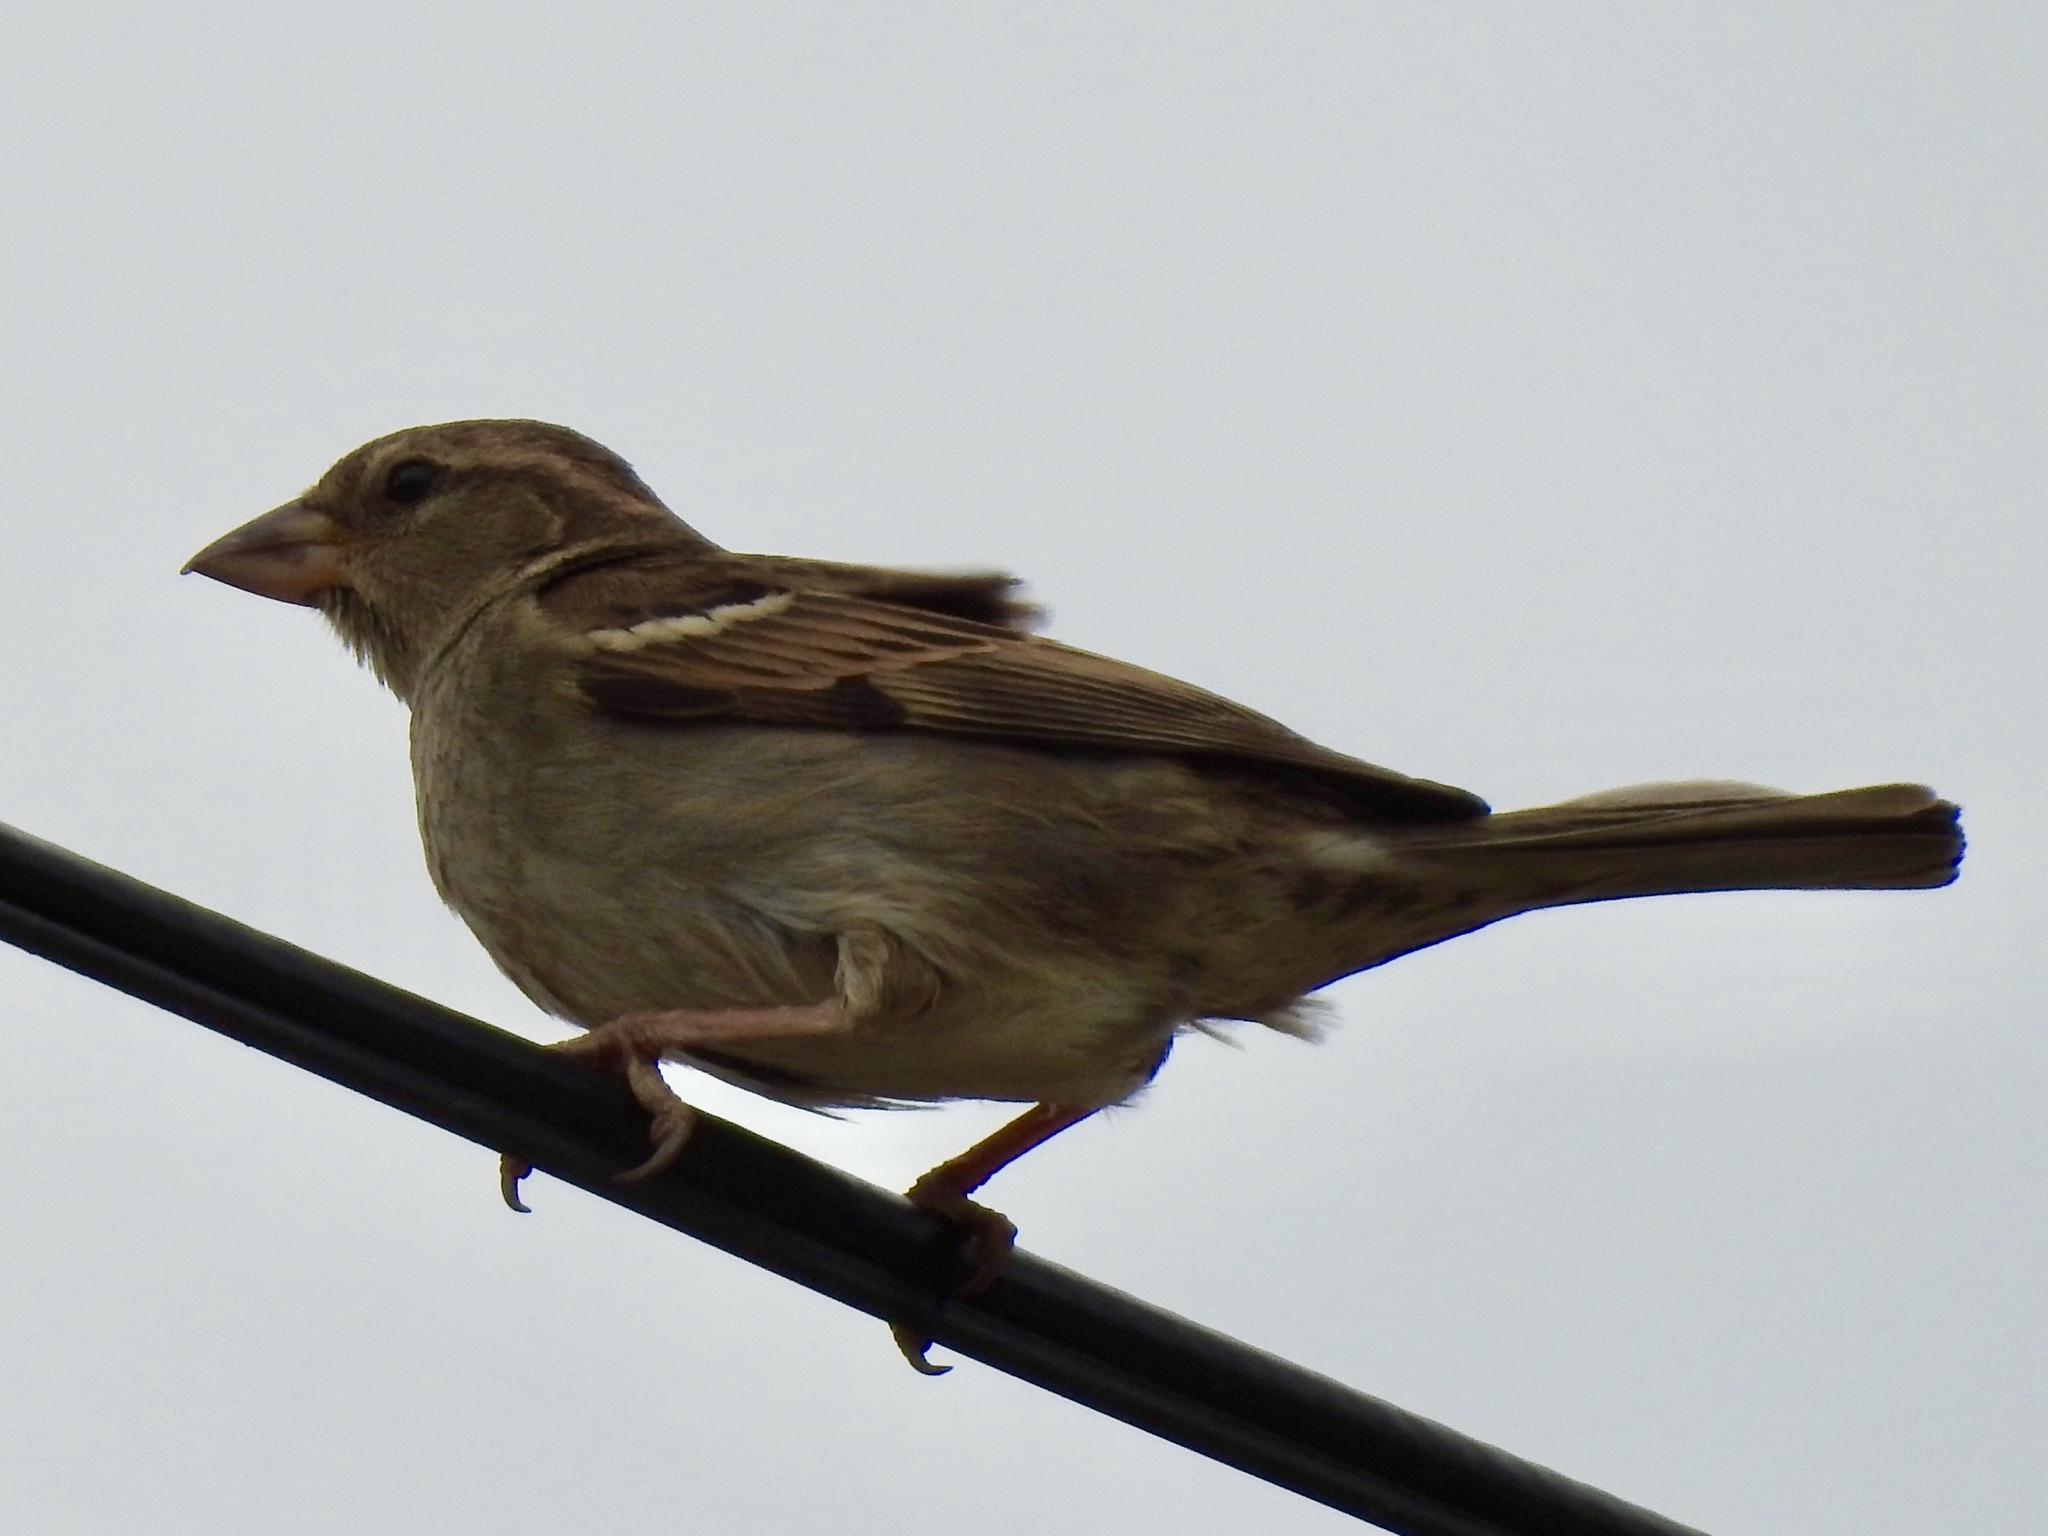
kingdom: Animalia
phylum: Chordata
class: Aves
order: Passeriformes
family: Passeridae
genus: Passer
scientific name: Passer domesticus
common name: House sparrow
